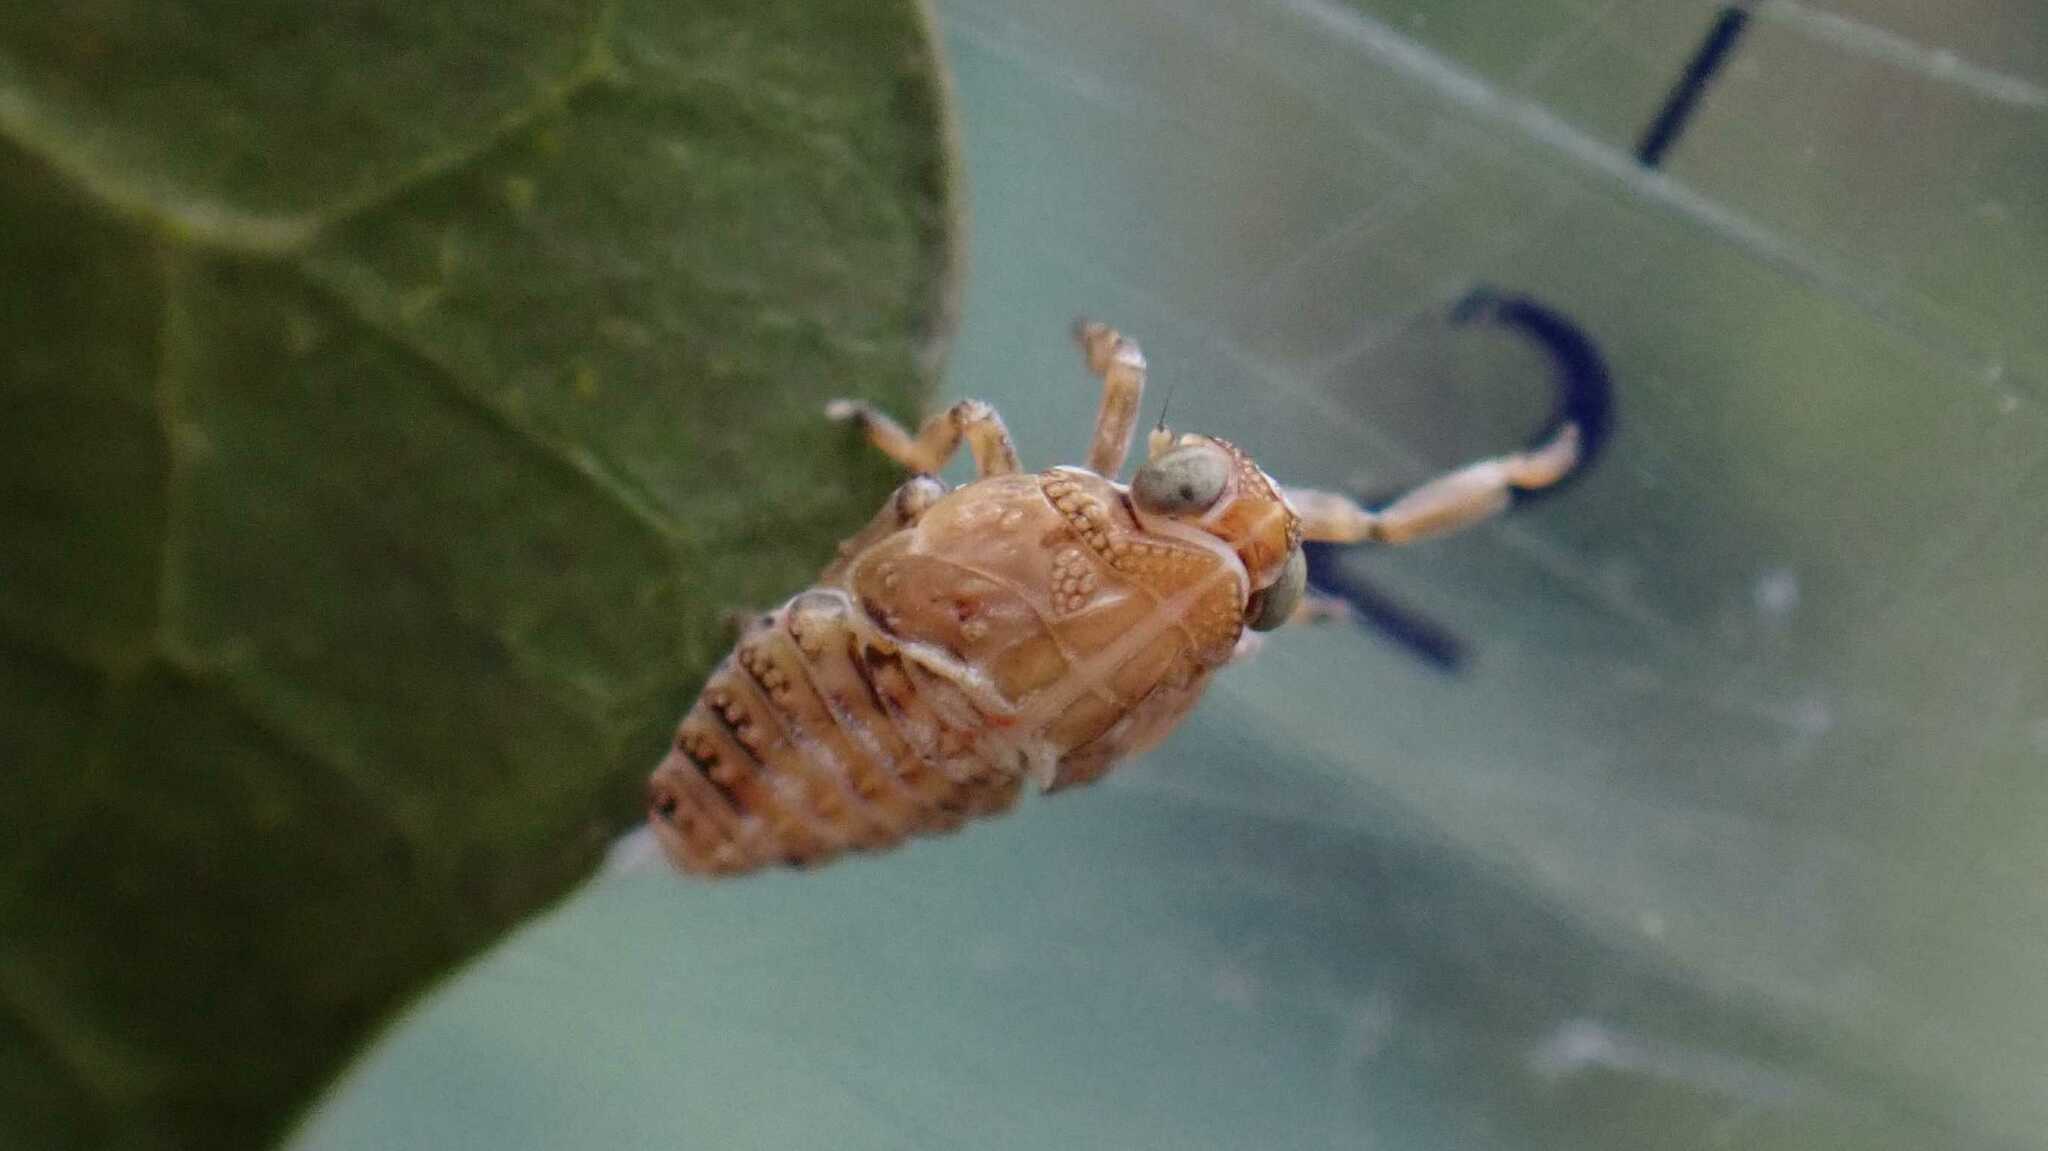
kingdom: Animalia
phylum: Arthropoda
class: Insecta
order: Hemiptera
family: Issidae
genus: Issus
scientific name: Issus coleoptratus
